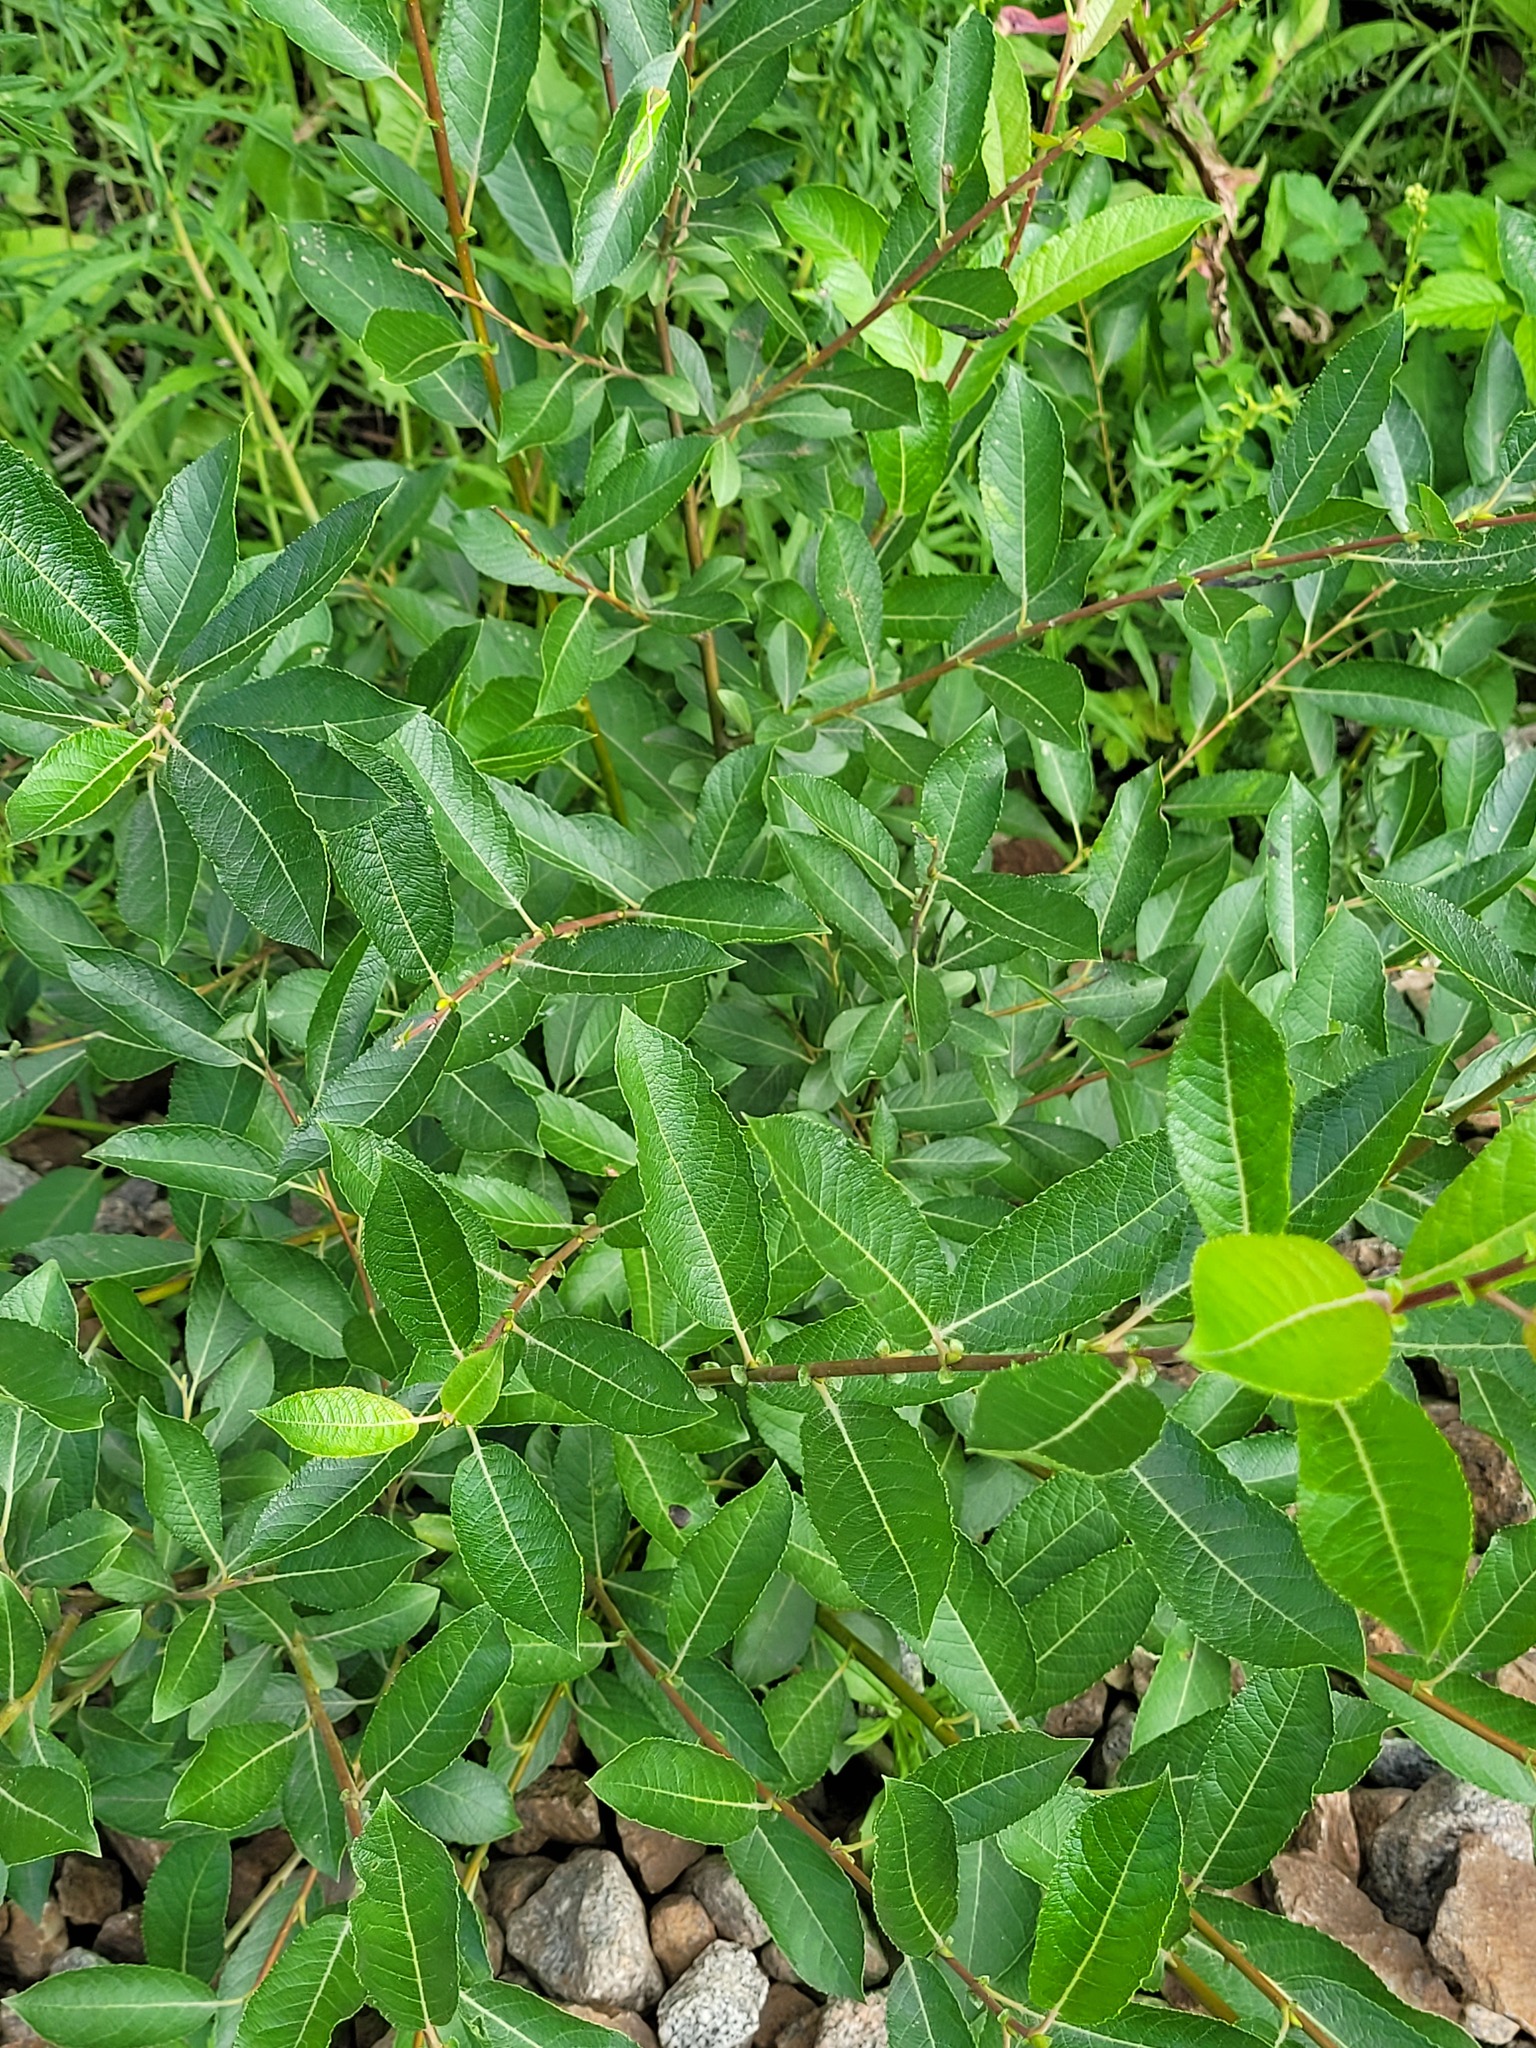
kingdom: Plantae
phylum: Tracheophyta
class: Magnoliopsida
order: Malpighiales
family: Salicaceae
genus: Salix
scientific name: Salix myrsinifolia
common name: Dark-leaved willow
